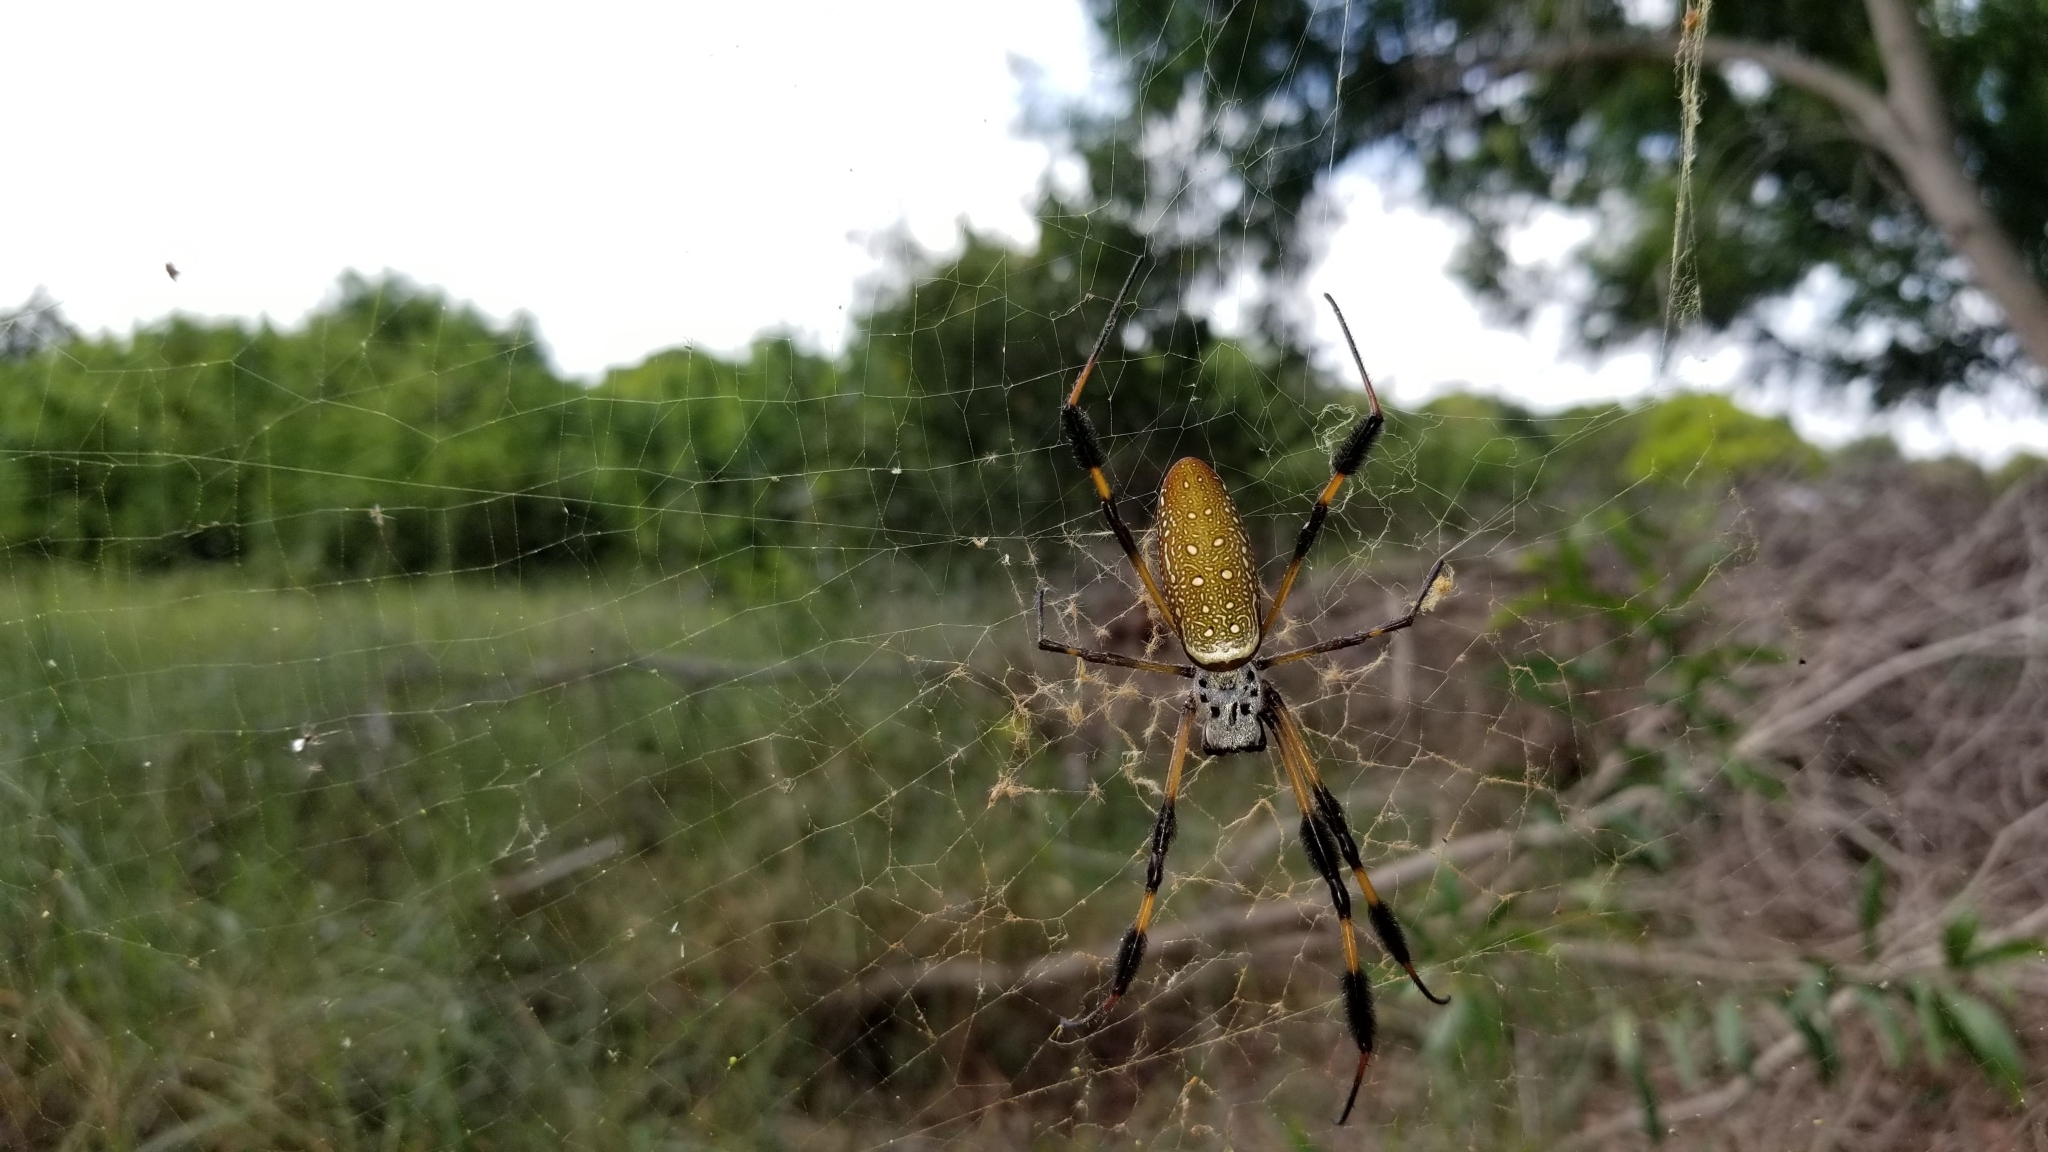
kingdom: Animalia
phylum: Arthropoda
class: Arachnida
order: Araneae
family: Araneidae
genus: Trichonephila
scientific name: Trichonephila clavipes
